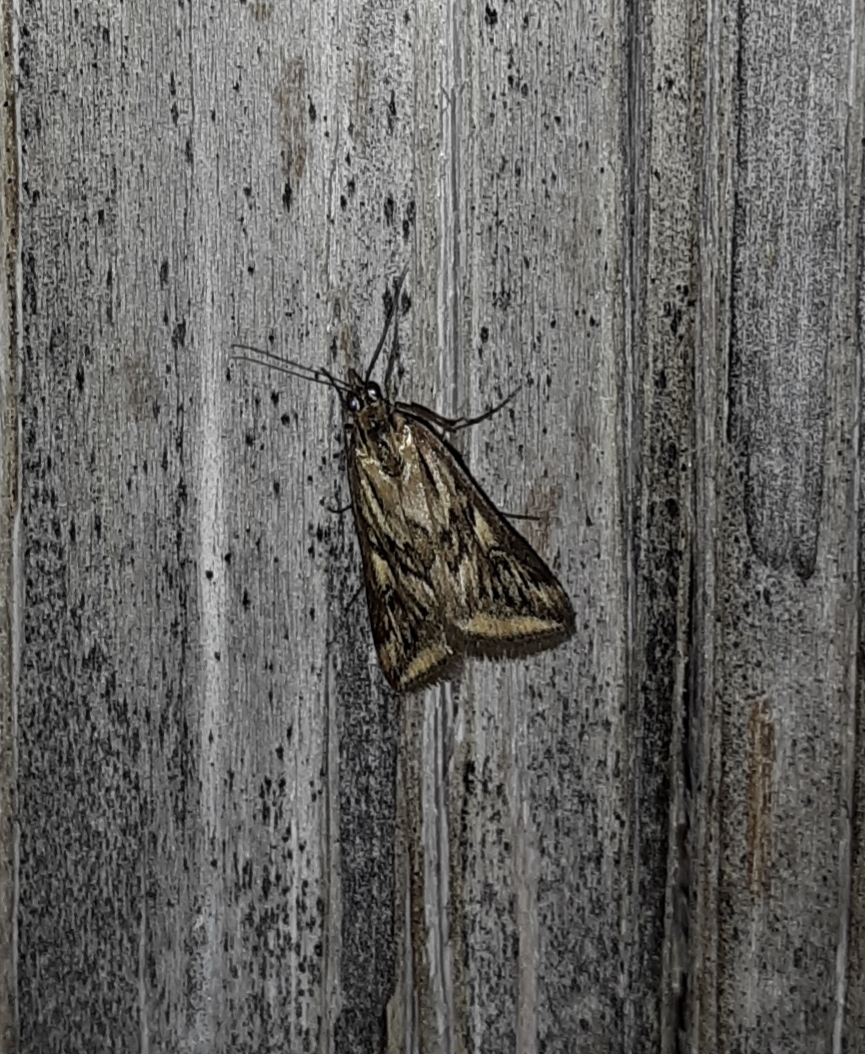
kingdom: Animalia
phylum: Arthropoda
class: Insecta
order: Lepidoptera
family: Crambidae
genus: Loxostege
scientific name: Loxostege cereralis
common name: Alfalfa webworm moth
